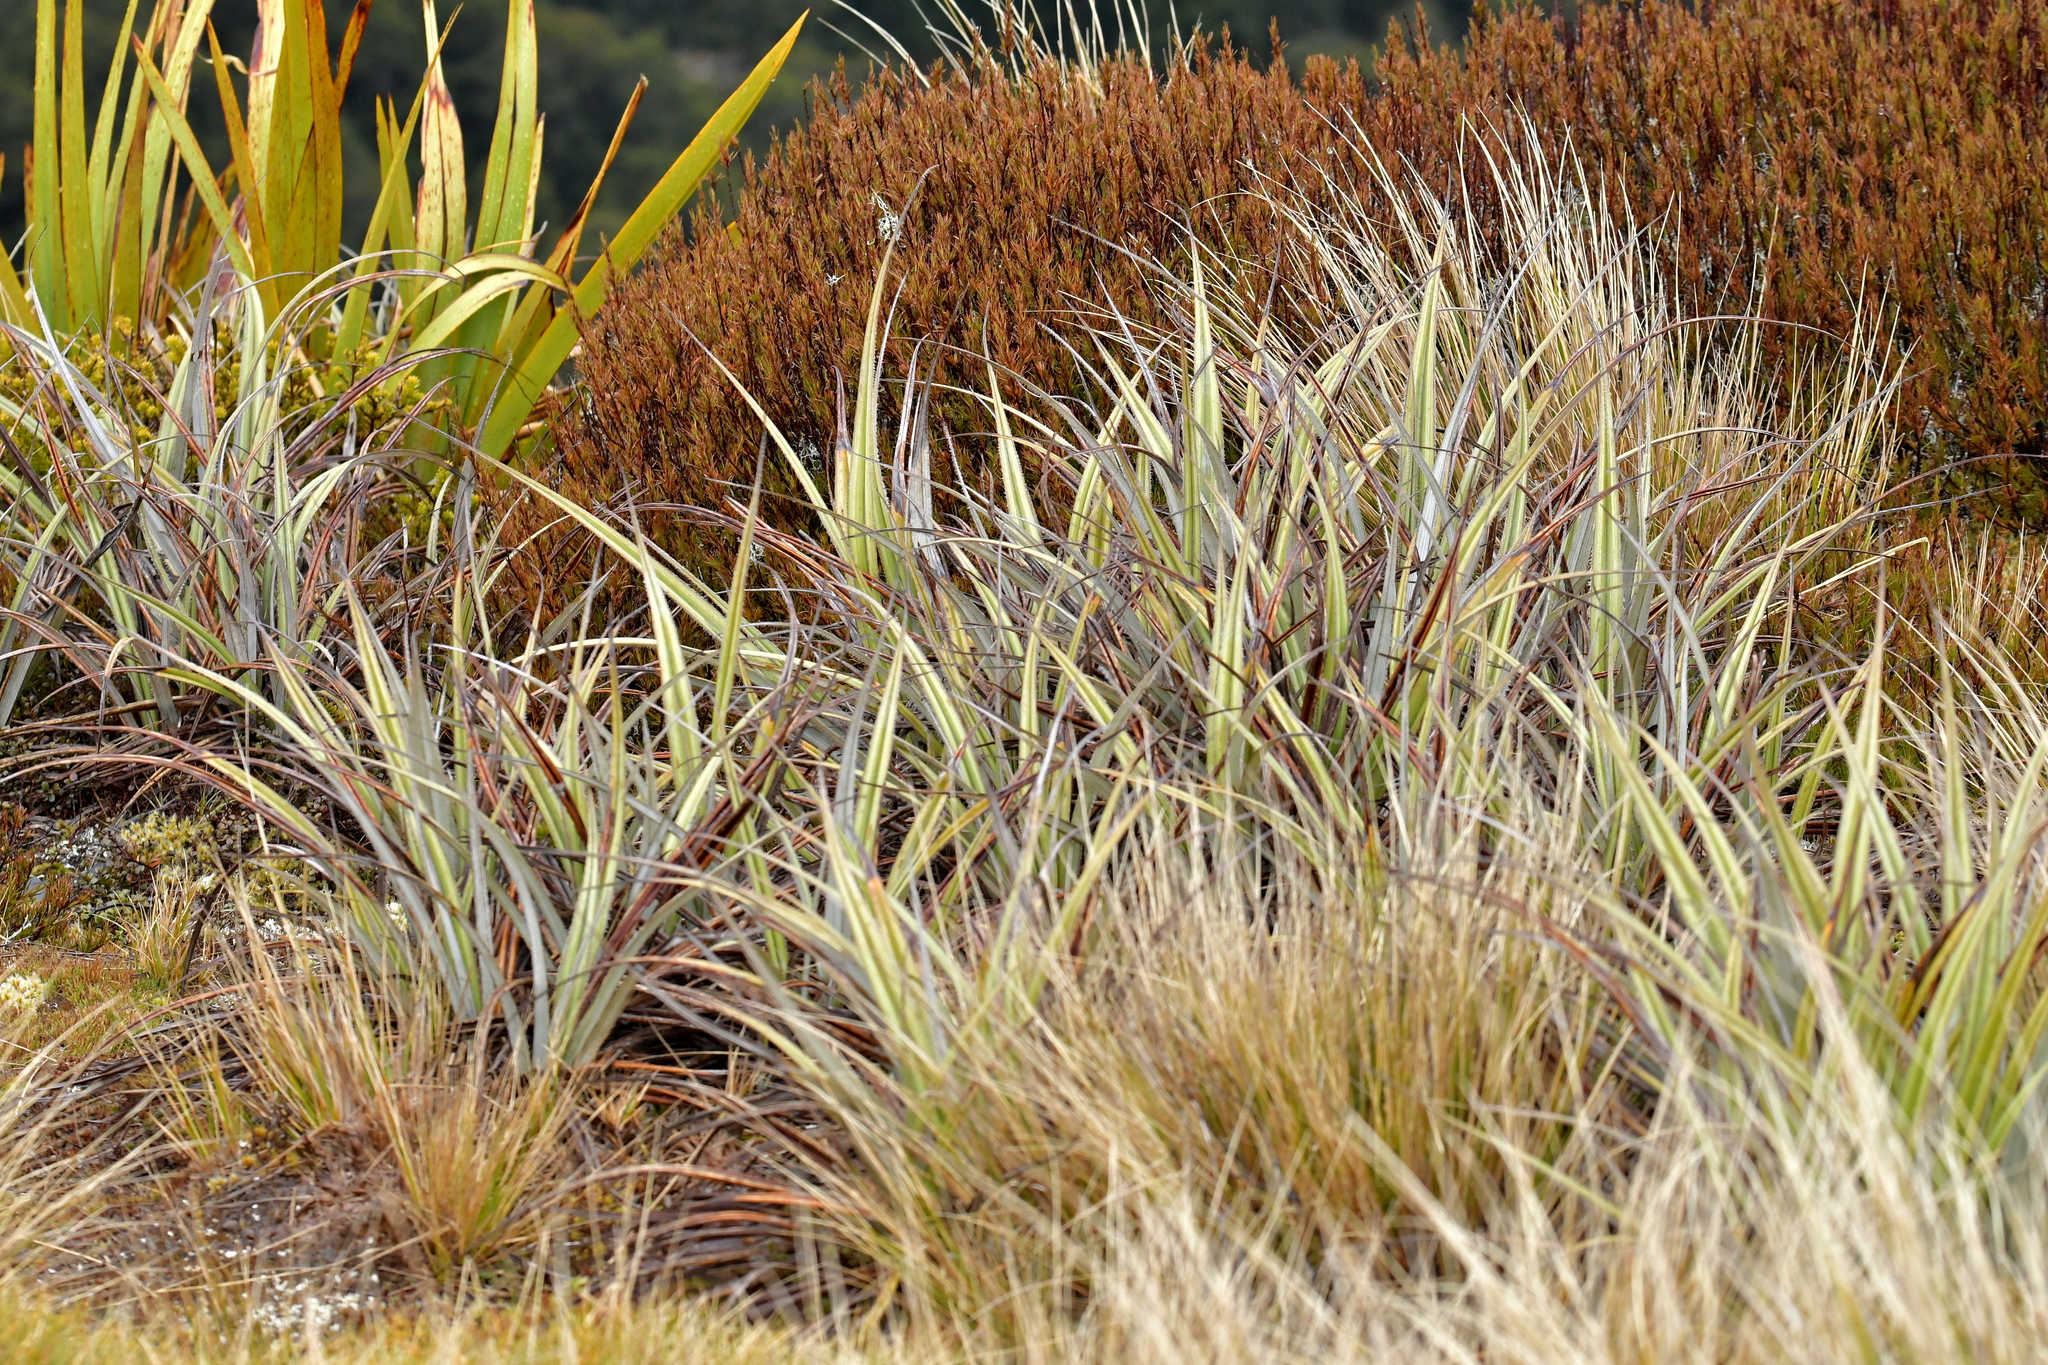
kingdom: Plantae
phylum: Tracheophyta
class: Liliopsida
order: Asparagales
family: Asteliaceae
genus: Astelia
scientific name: Astelia nervosa
